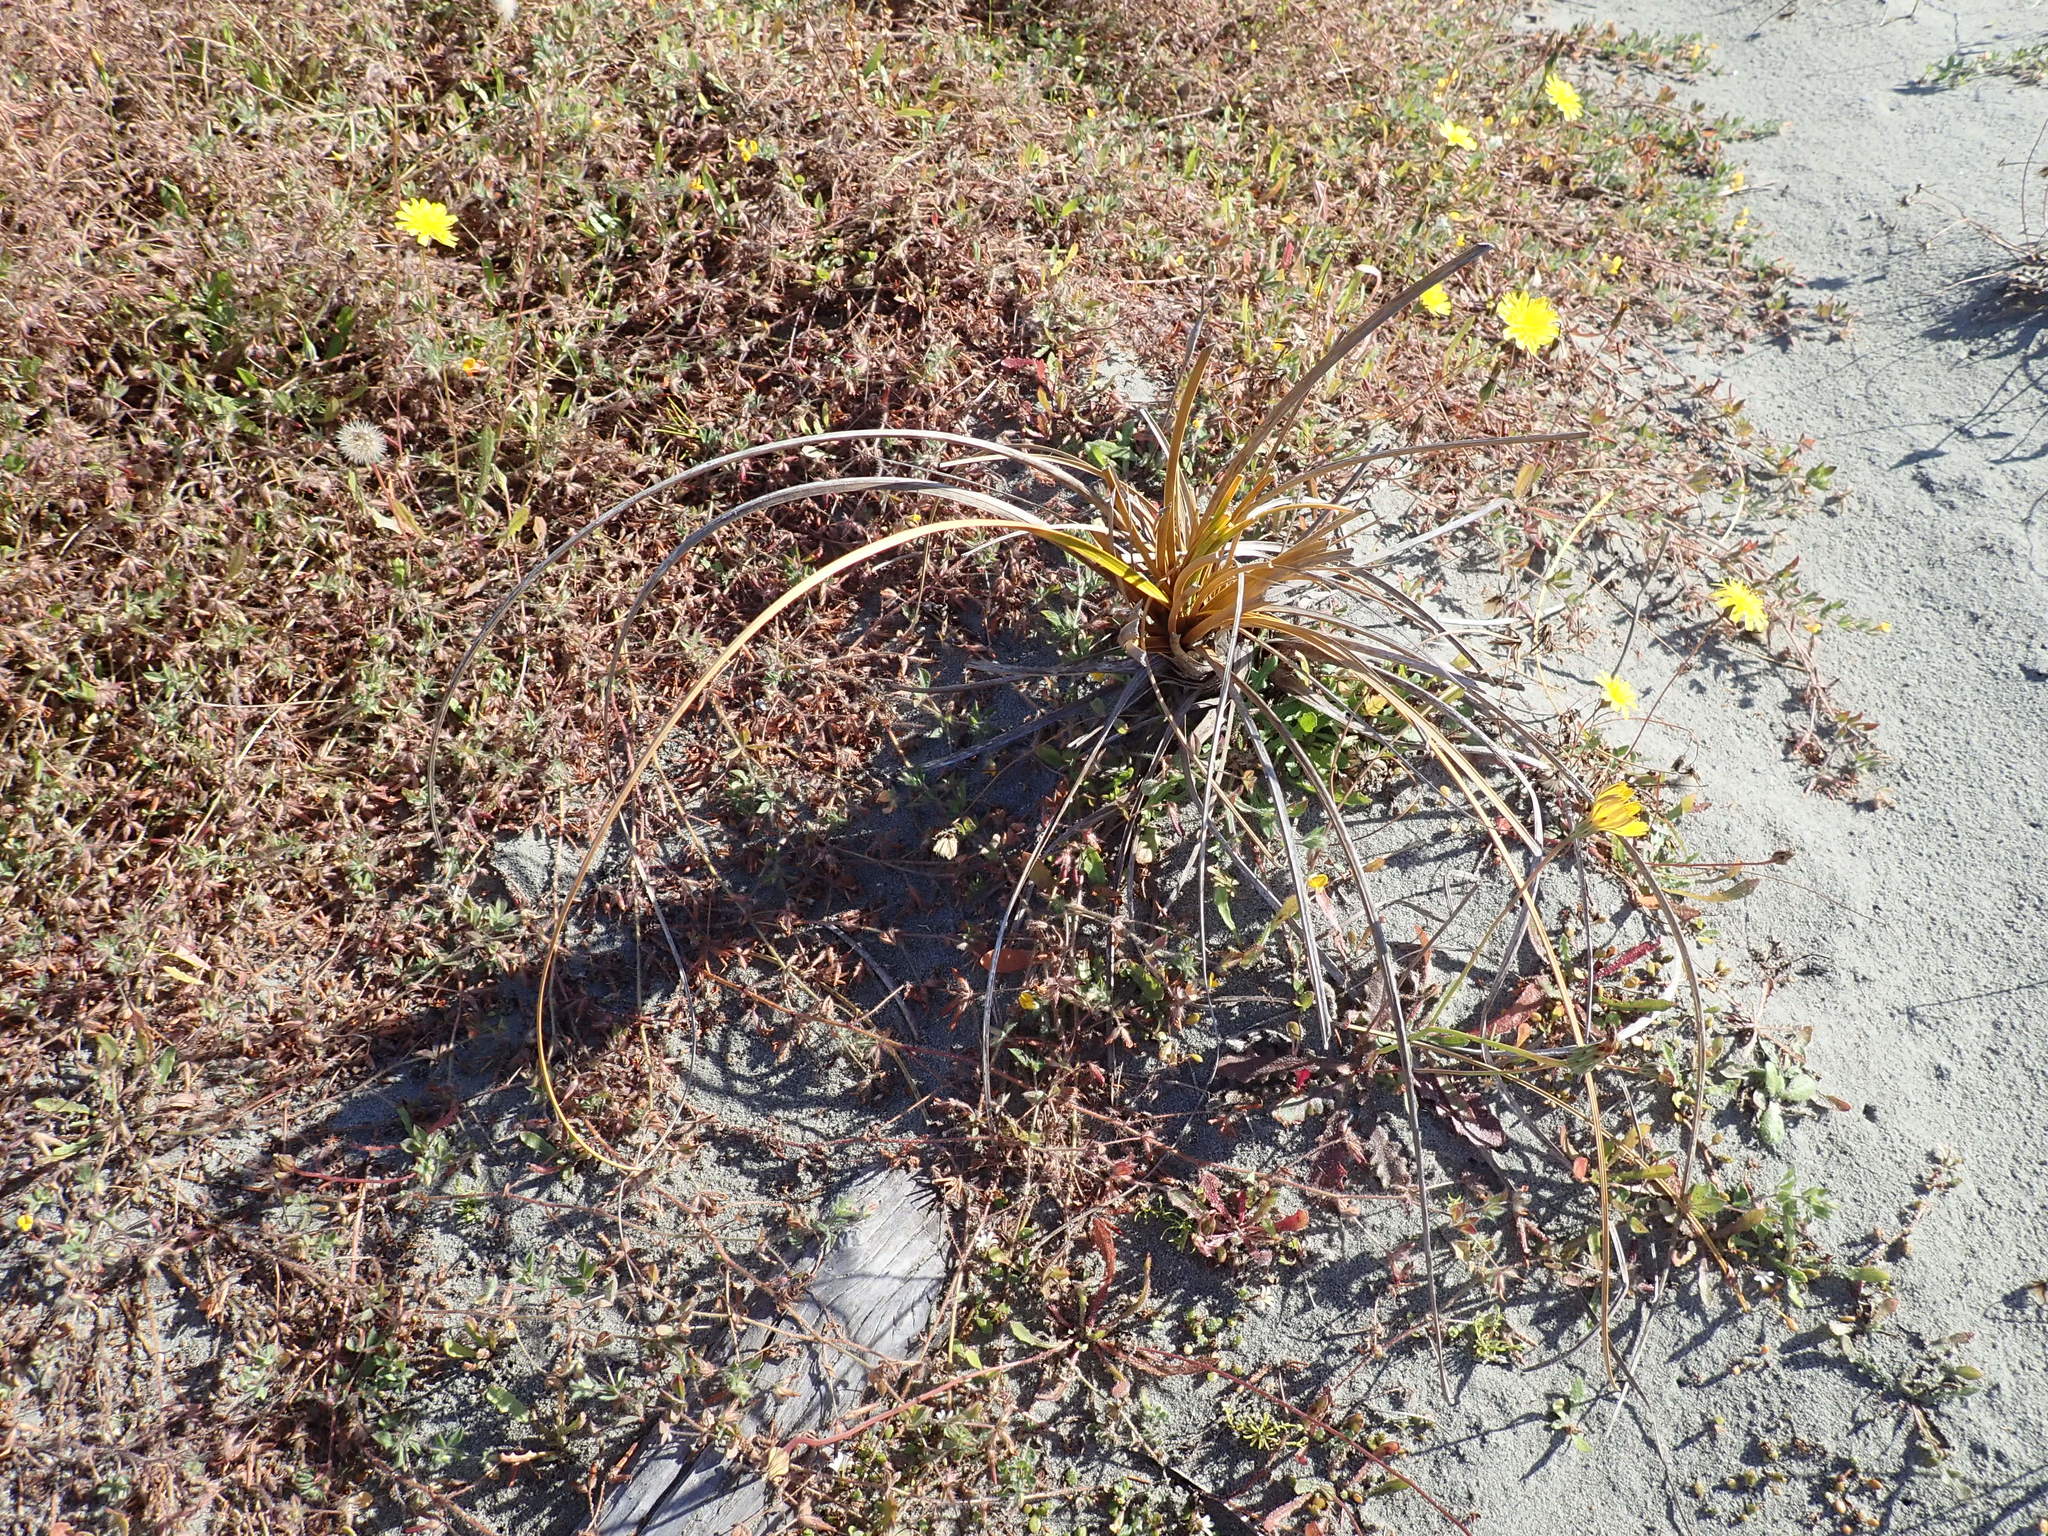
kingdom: Plantae
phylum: Tracheophyta
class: Liliopsida
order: Poales
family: Cyperaceae
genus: Ficinia
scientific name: Ficinia spiralis
